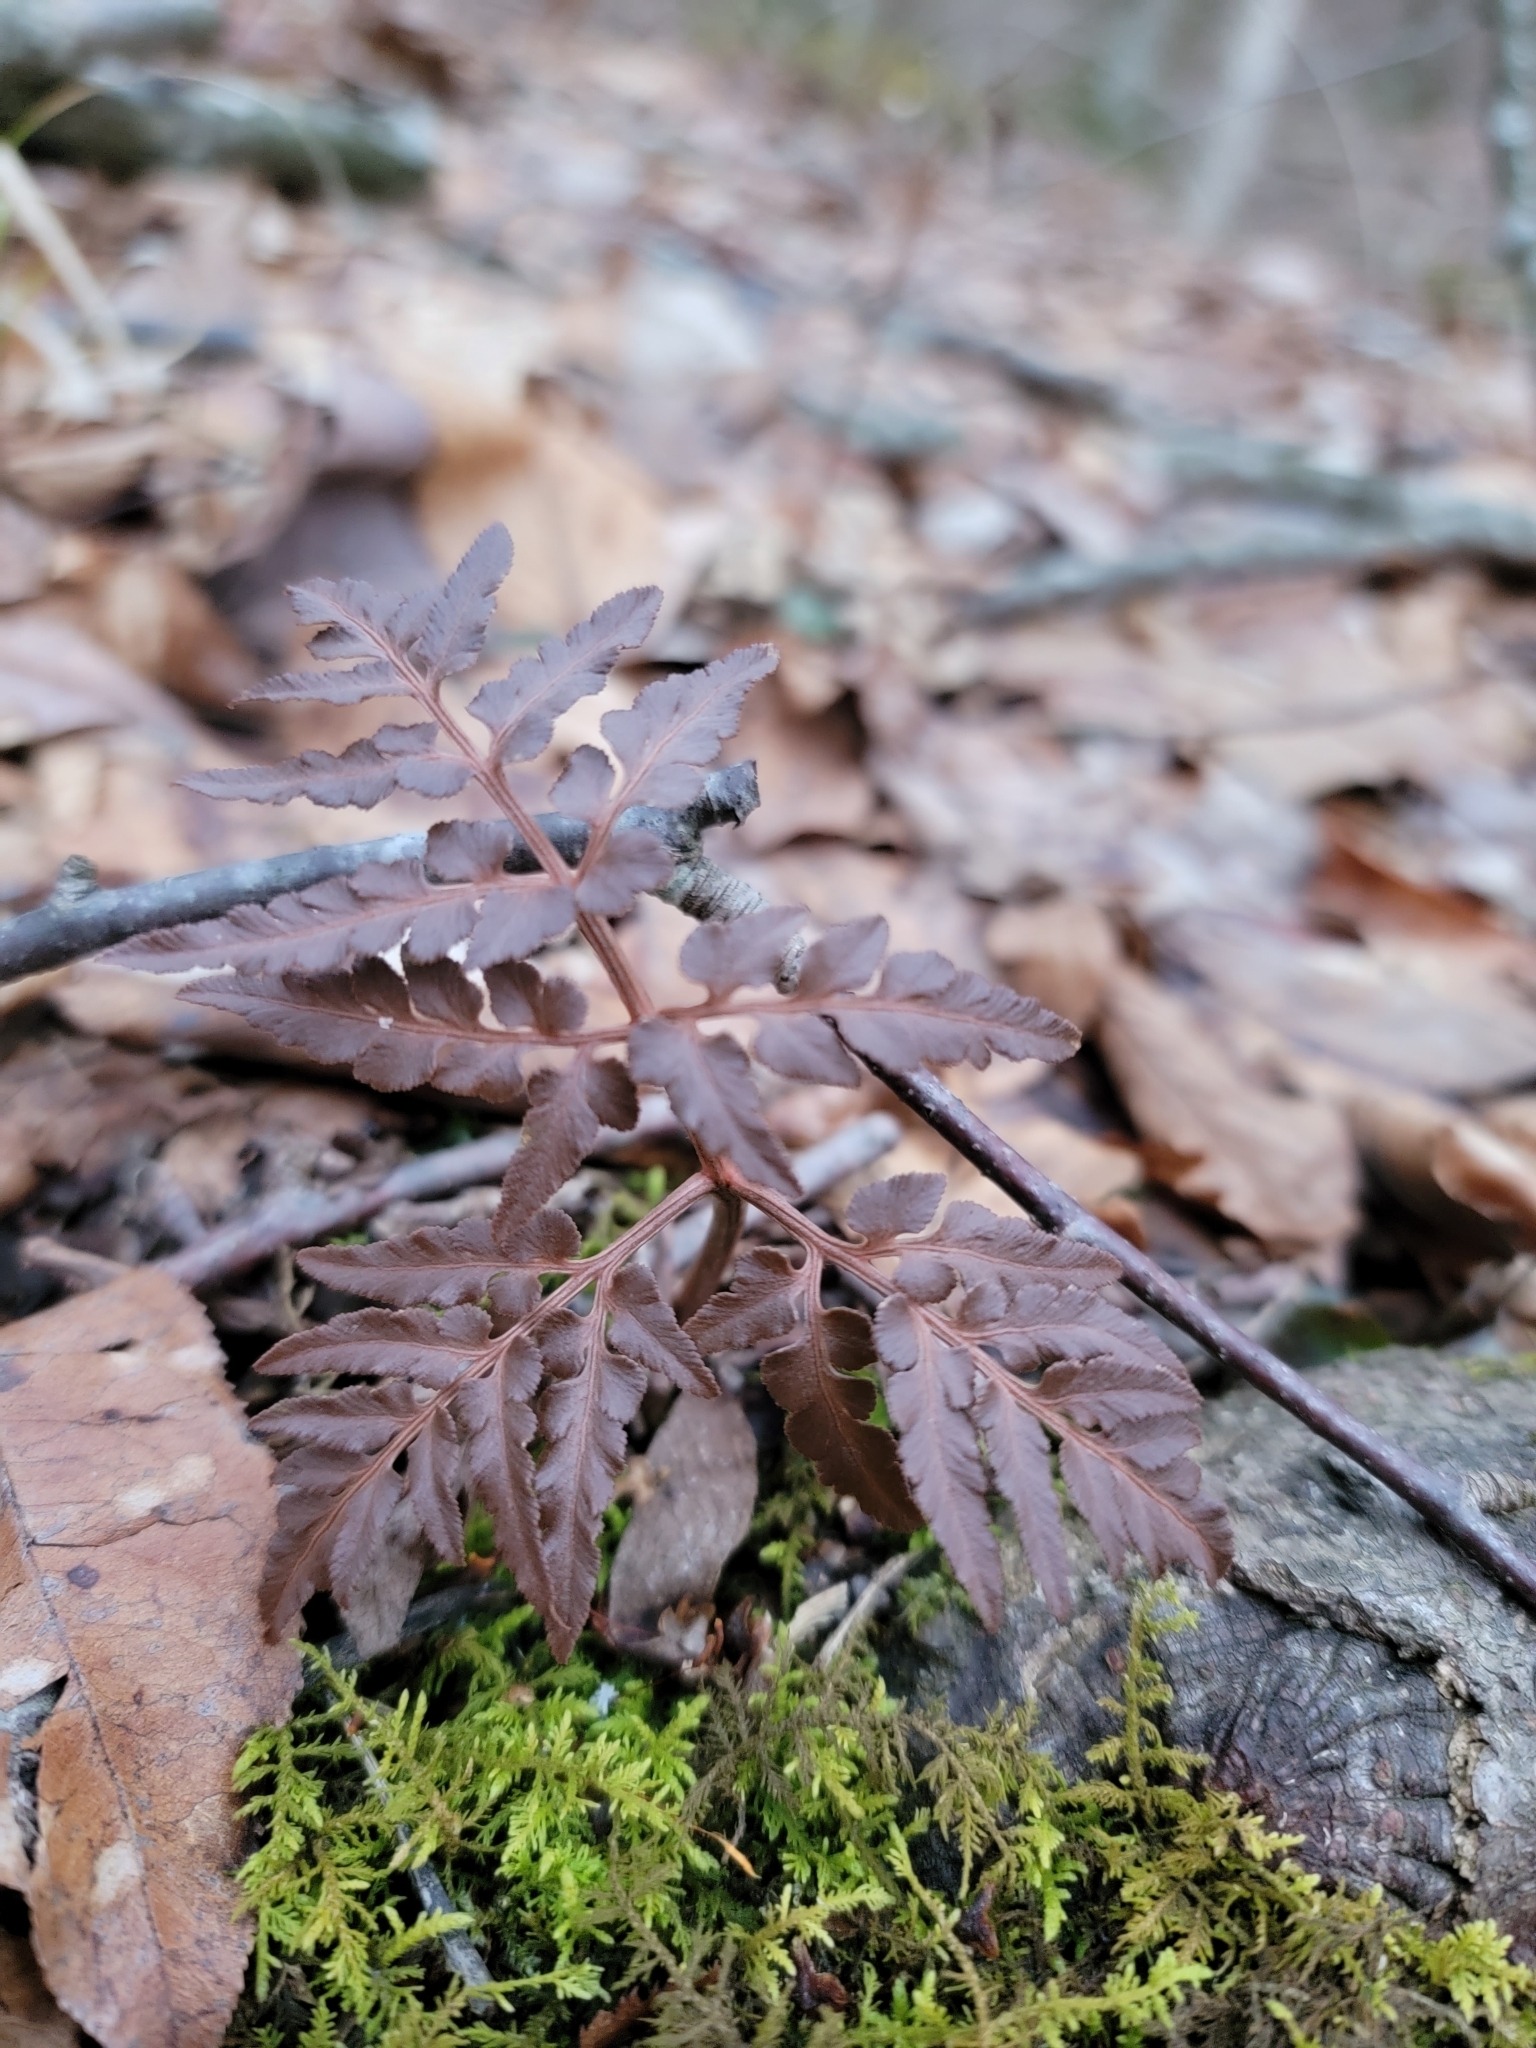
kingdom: Plantae
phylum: Tracheophyta
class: Polypodiopsida
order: Ophioglossales
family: Ophioglossaceae
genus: Sceptridium
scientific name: Sceptridium dissectum
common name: Cut-leaved grapefern
